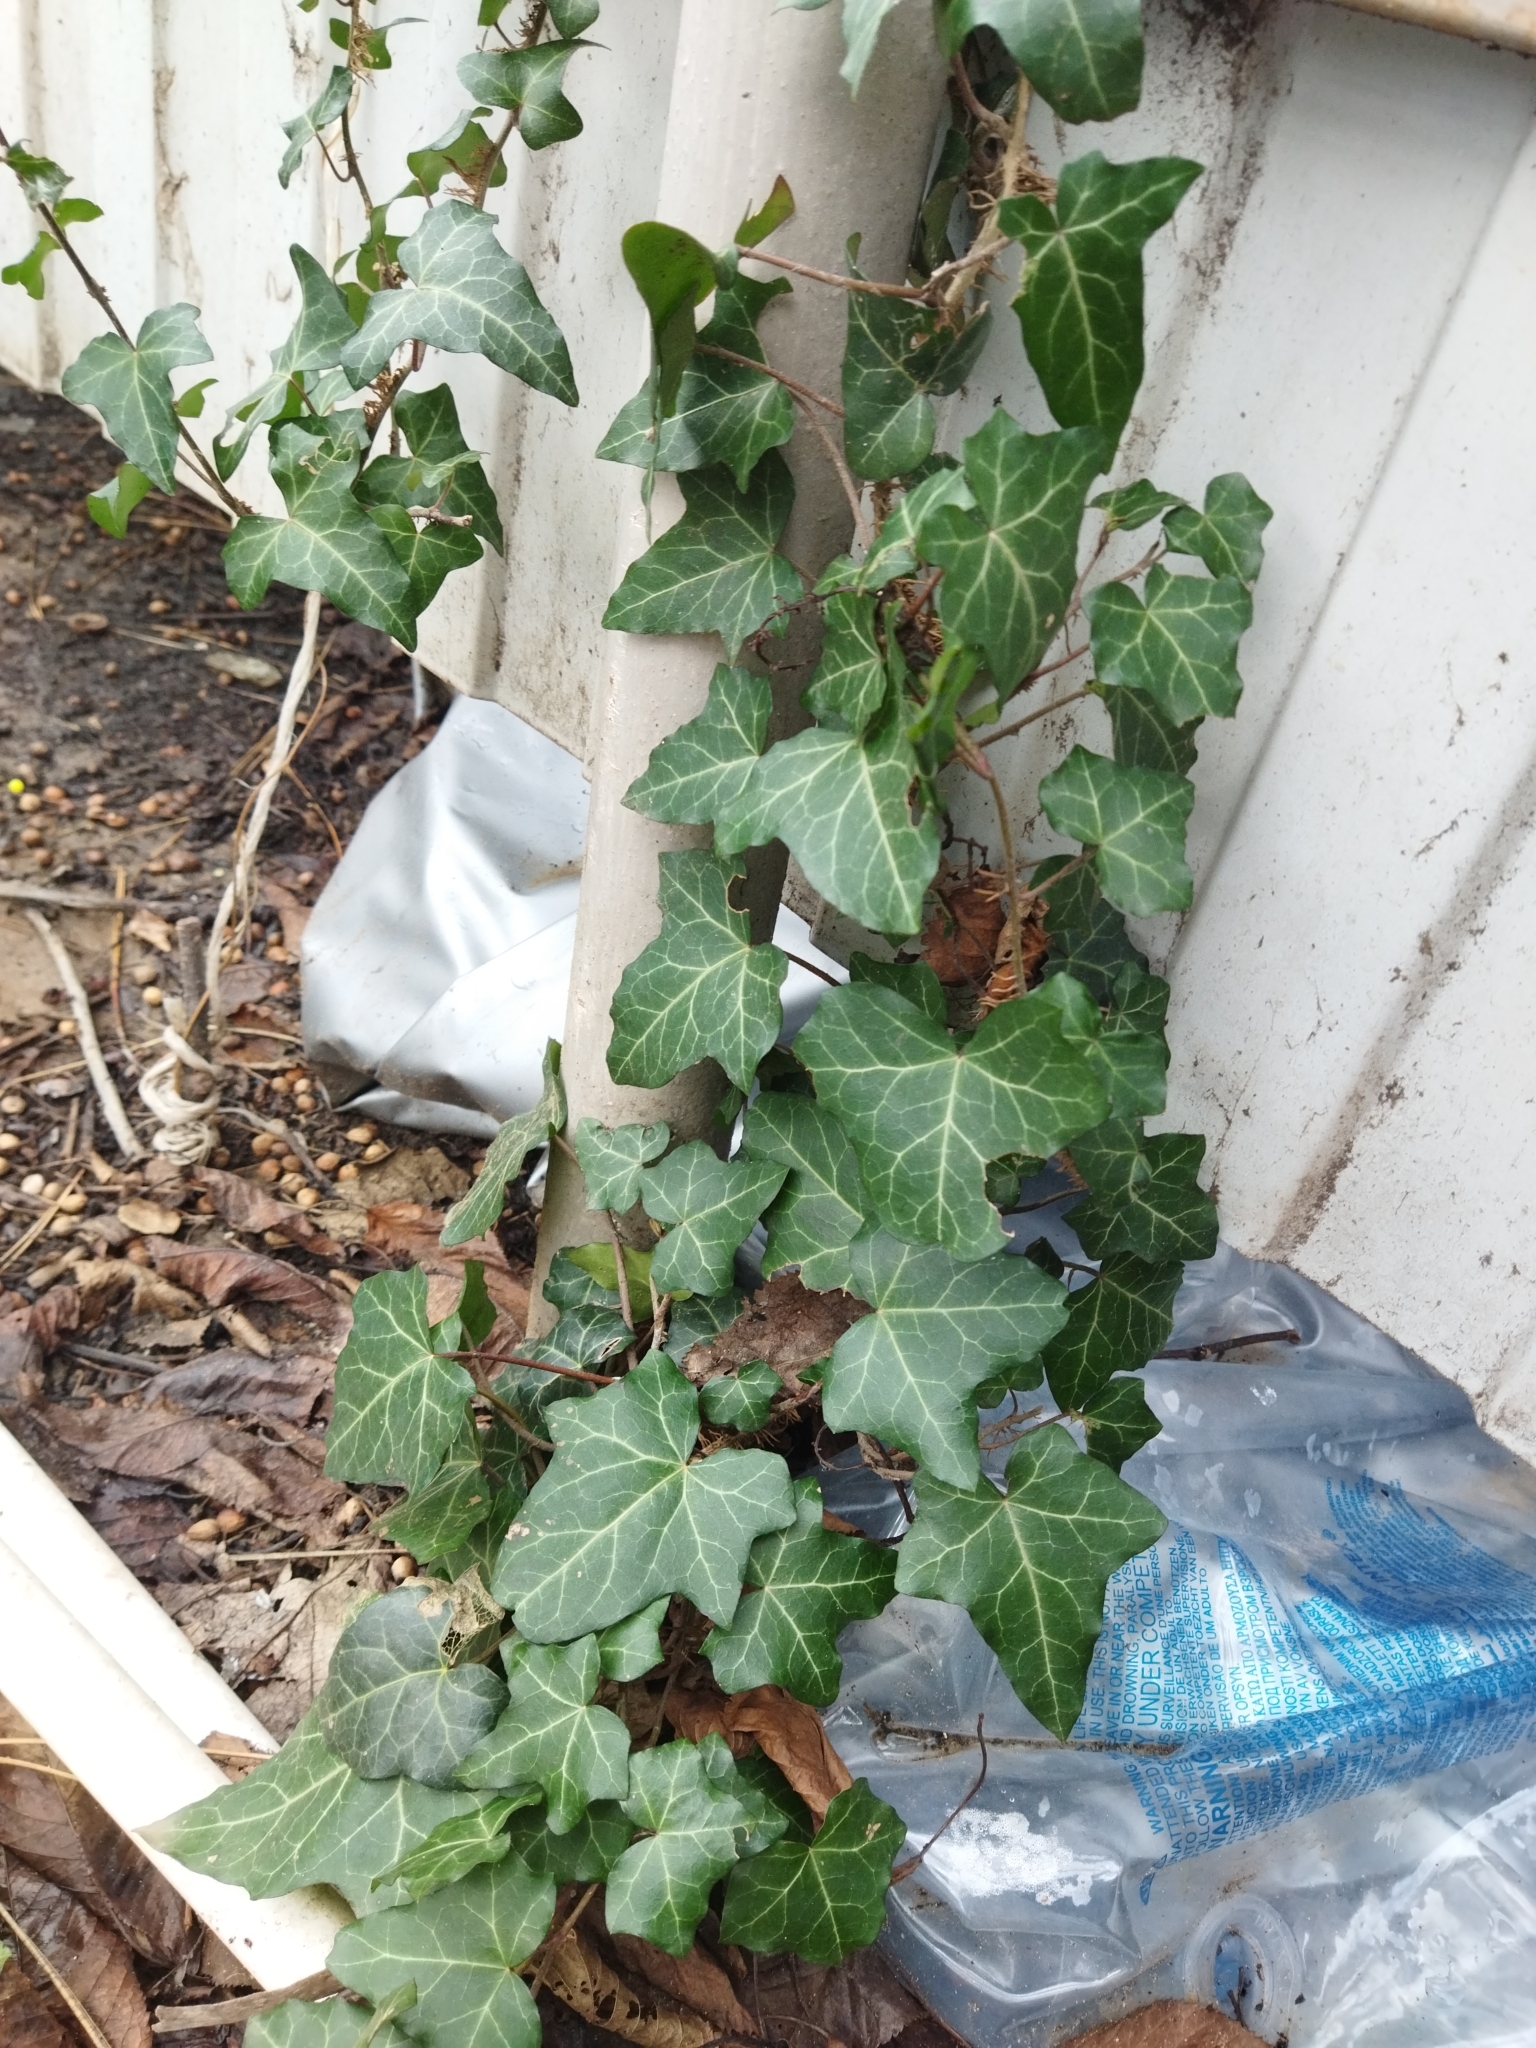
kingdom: Plantae
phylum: Tracheophyta
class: Magnoliopsida
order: Apiales
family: Araliaceae
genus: Hedera
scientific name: Hedera helix
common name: Ivy
